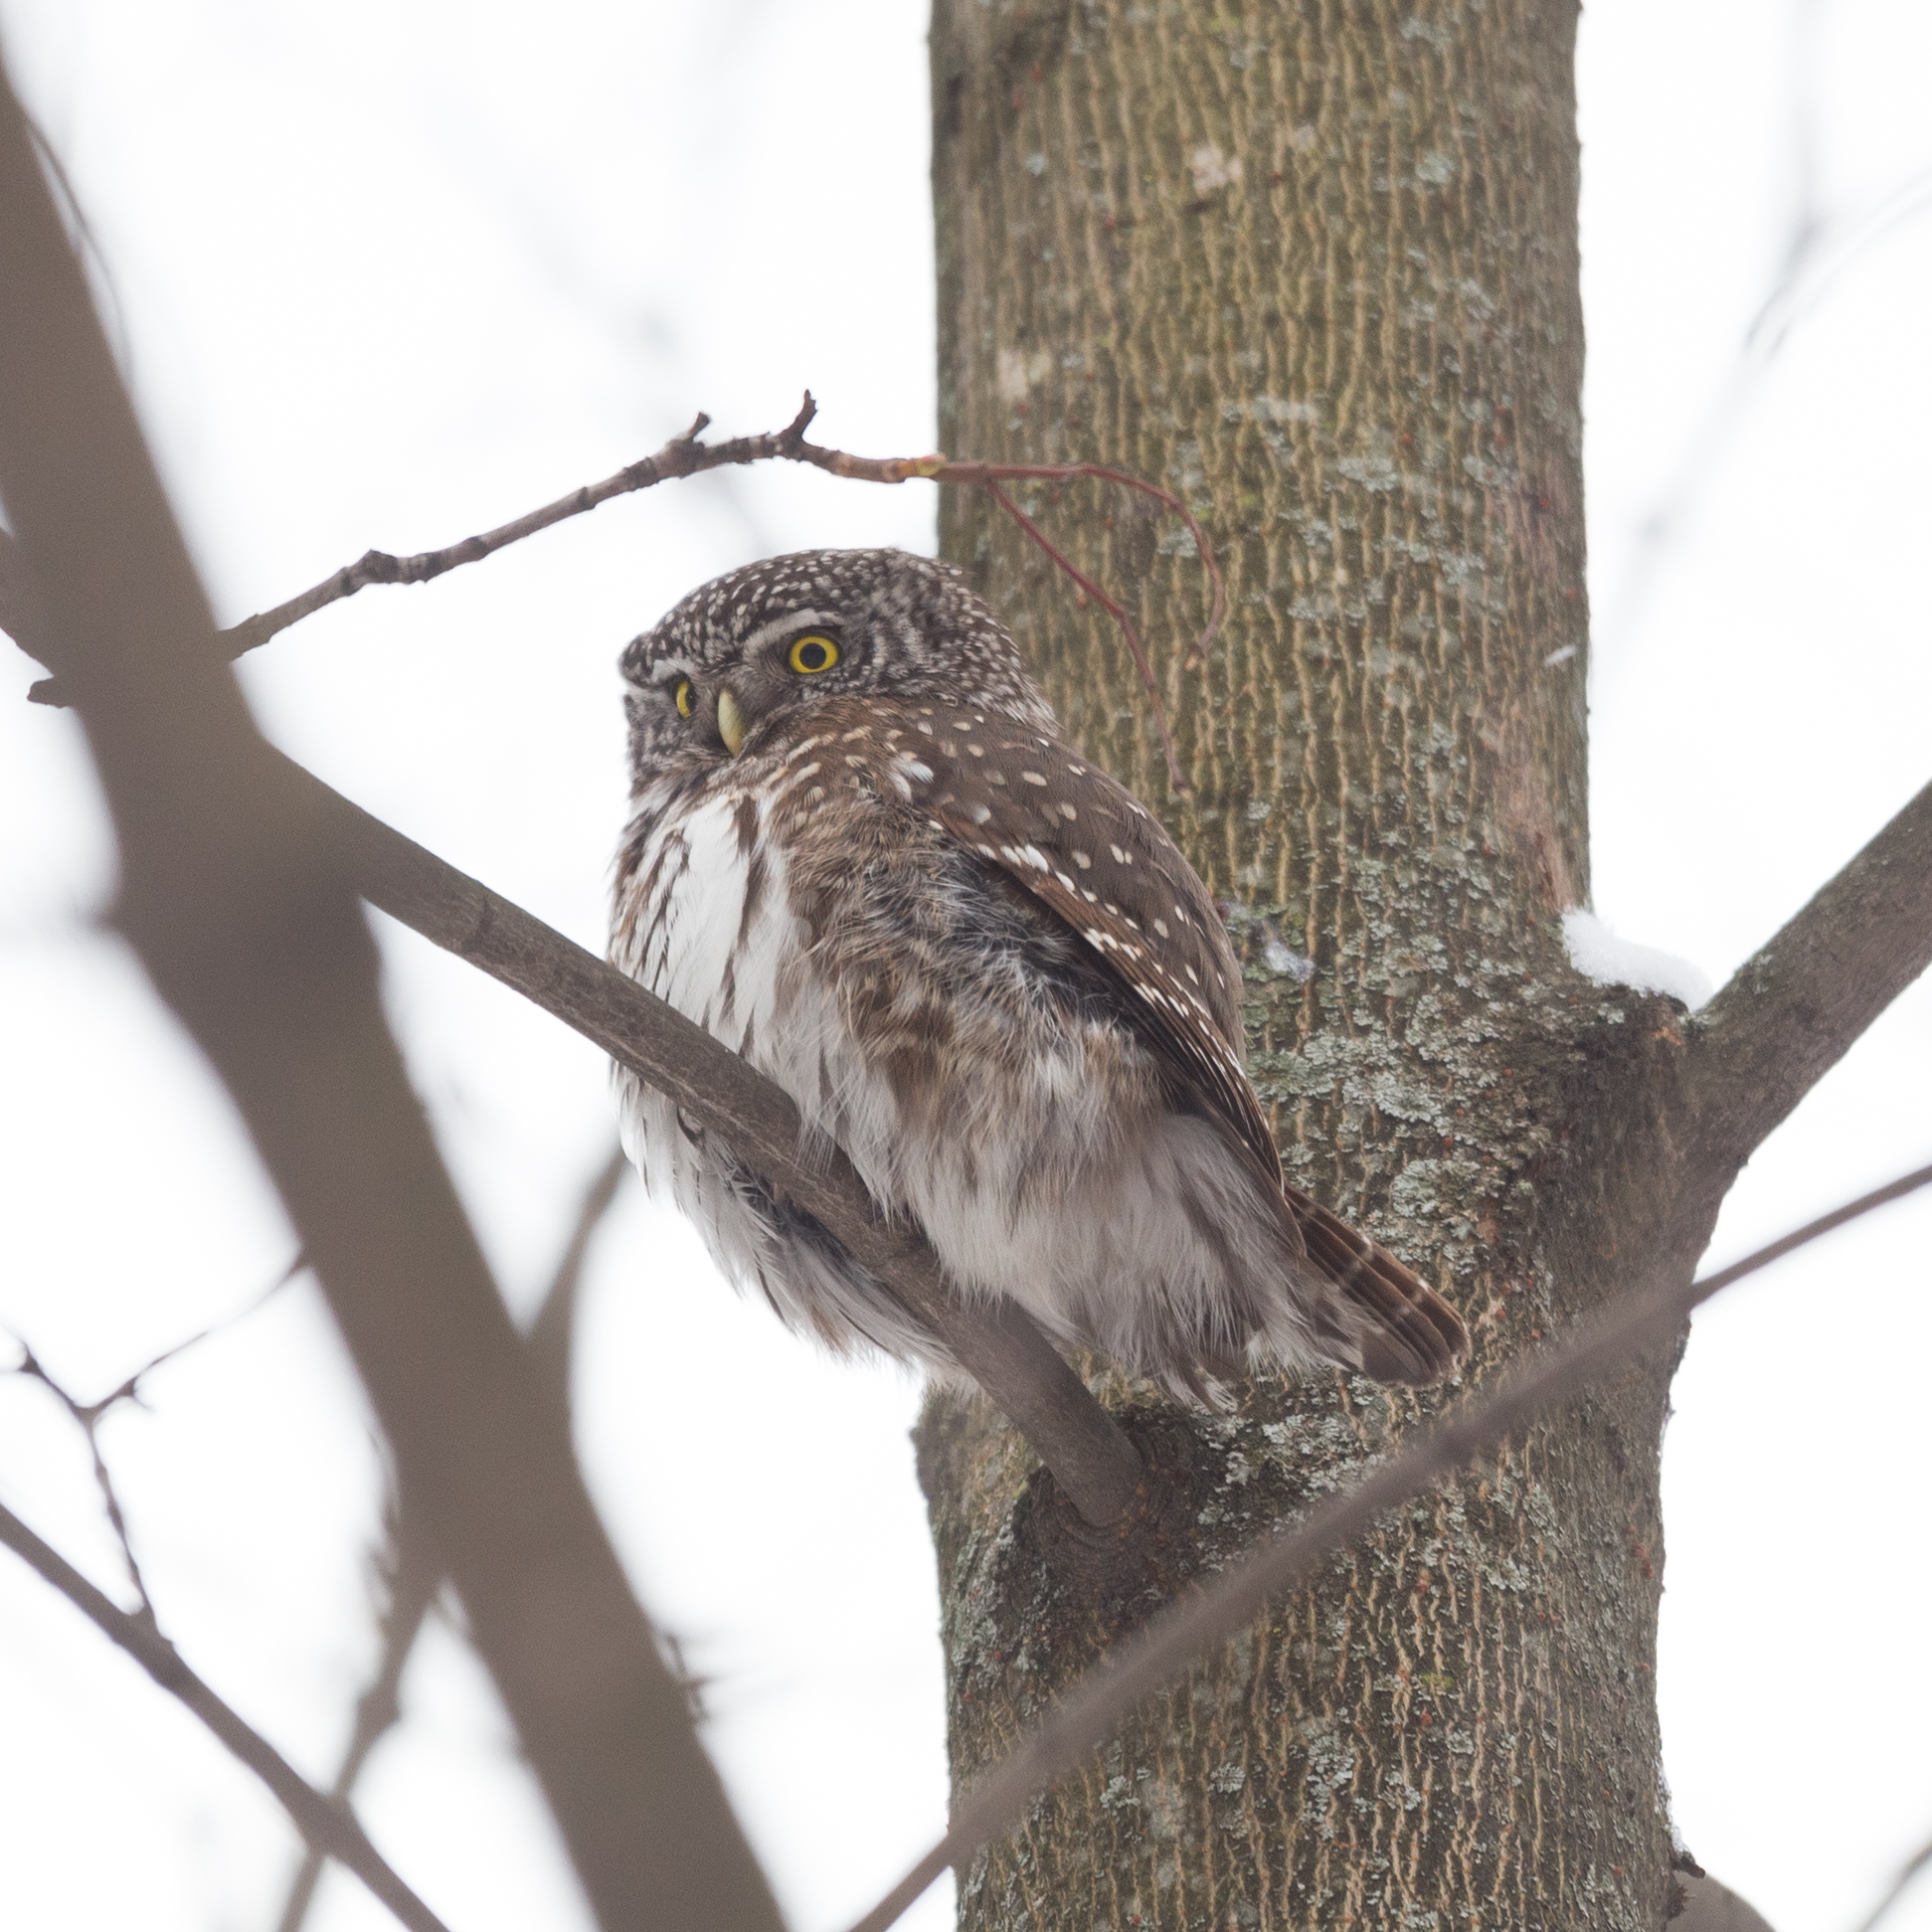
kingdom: Animalia
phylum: Chordata
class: Aves
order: Strigiformes
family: Strigidae
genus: Glaucidium
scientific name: Glaucidium passerinum
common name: Eurasian pygmy owl
